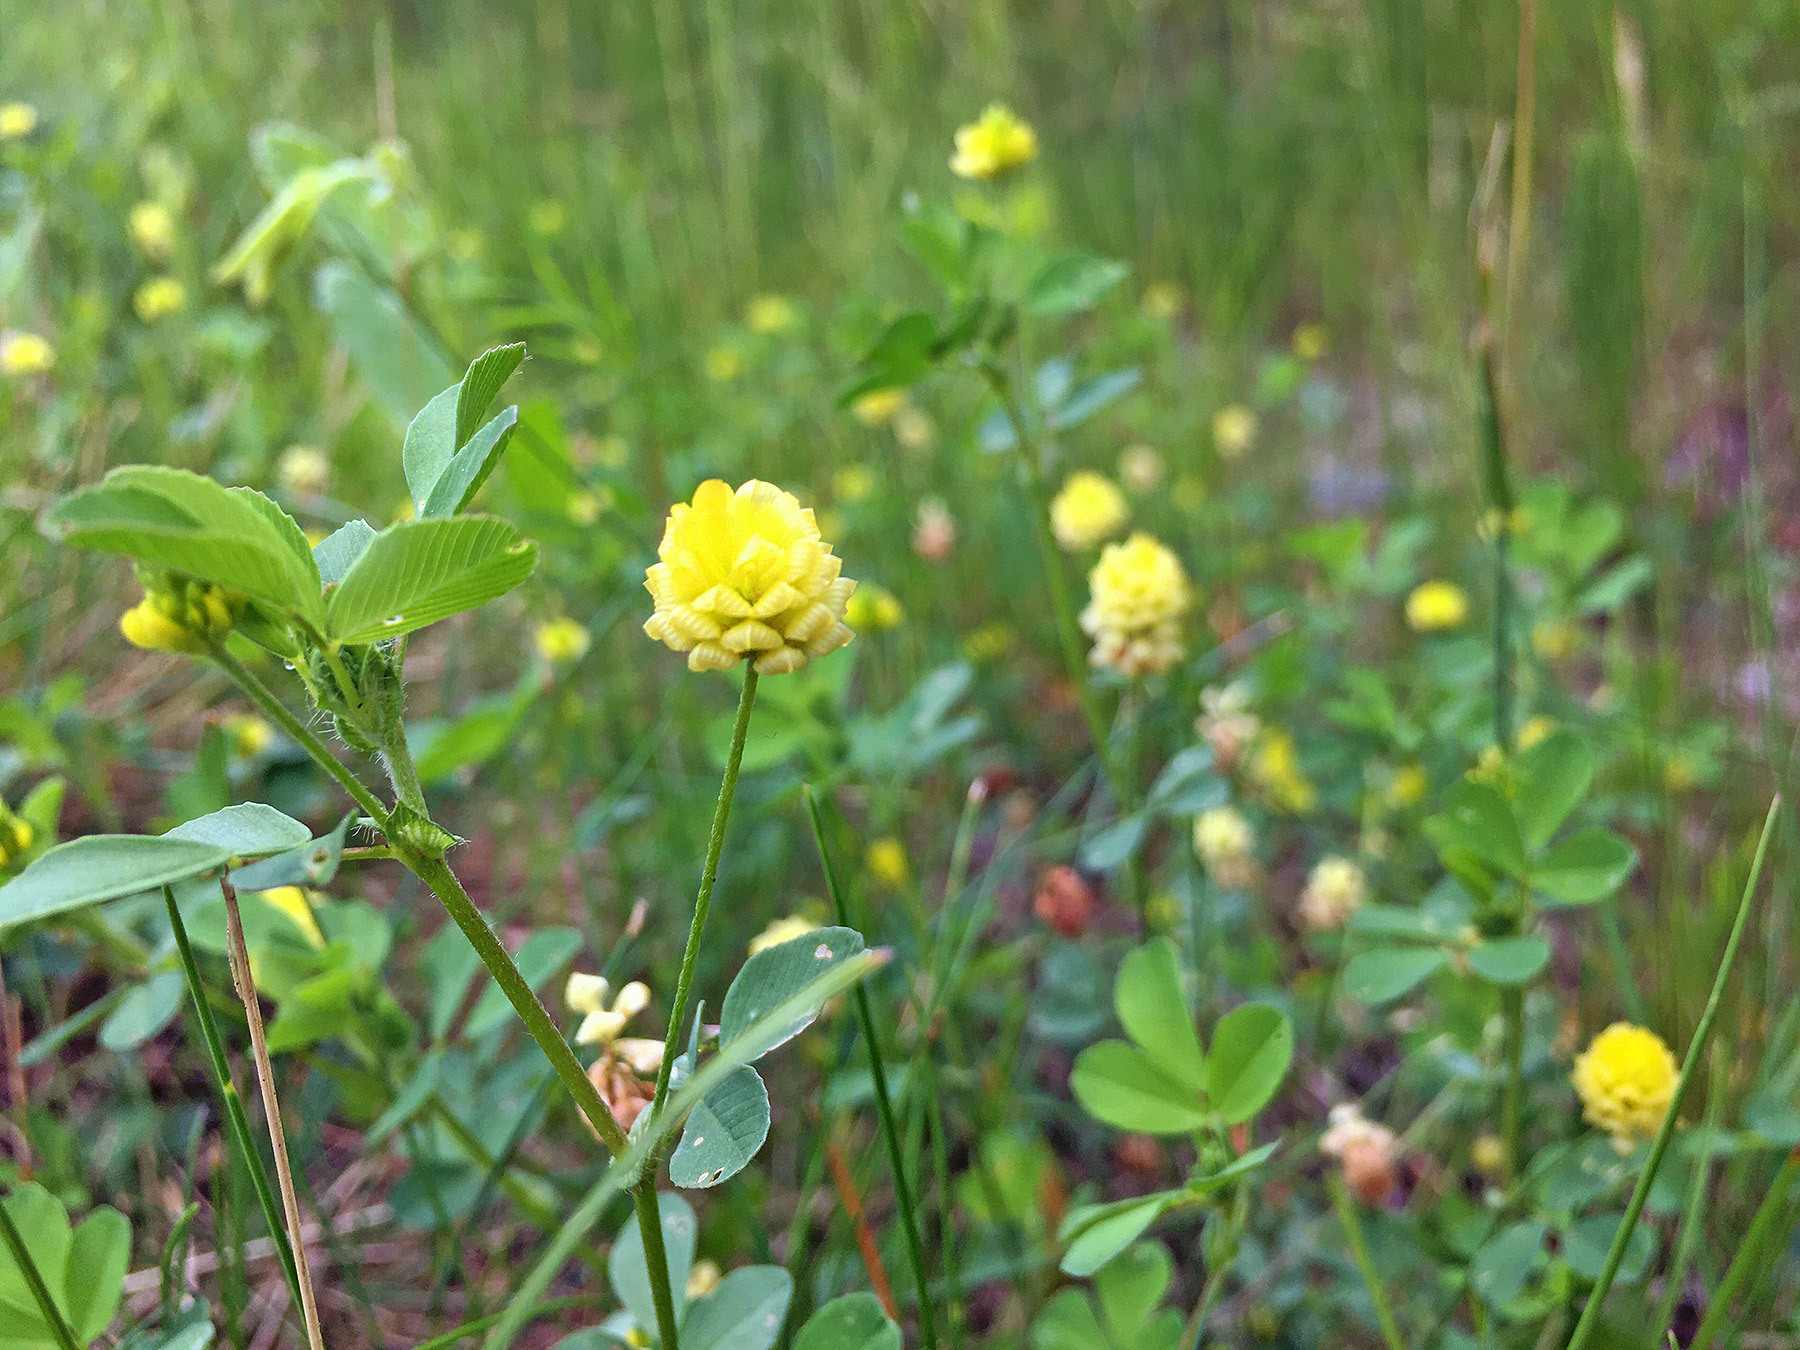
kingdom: Plantae
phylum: Tracheophyta
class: Magnoliopsida
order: Fabales
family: Fabaceae
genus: Trifolium
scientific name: Trifolium campestre
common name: Field clover
